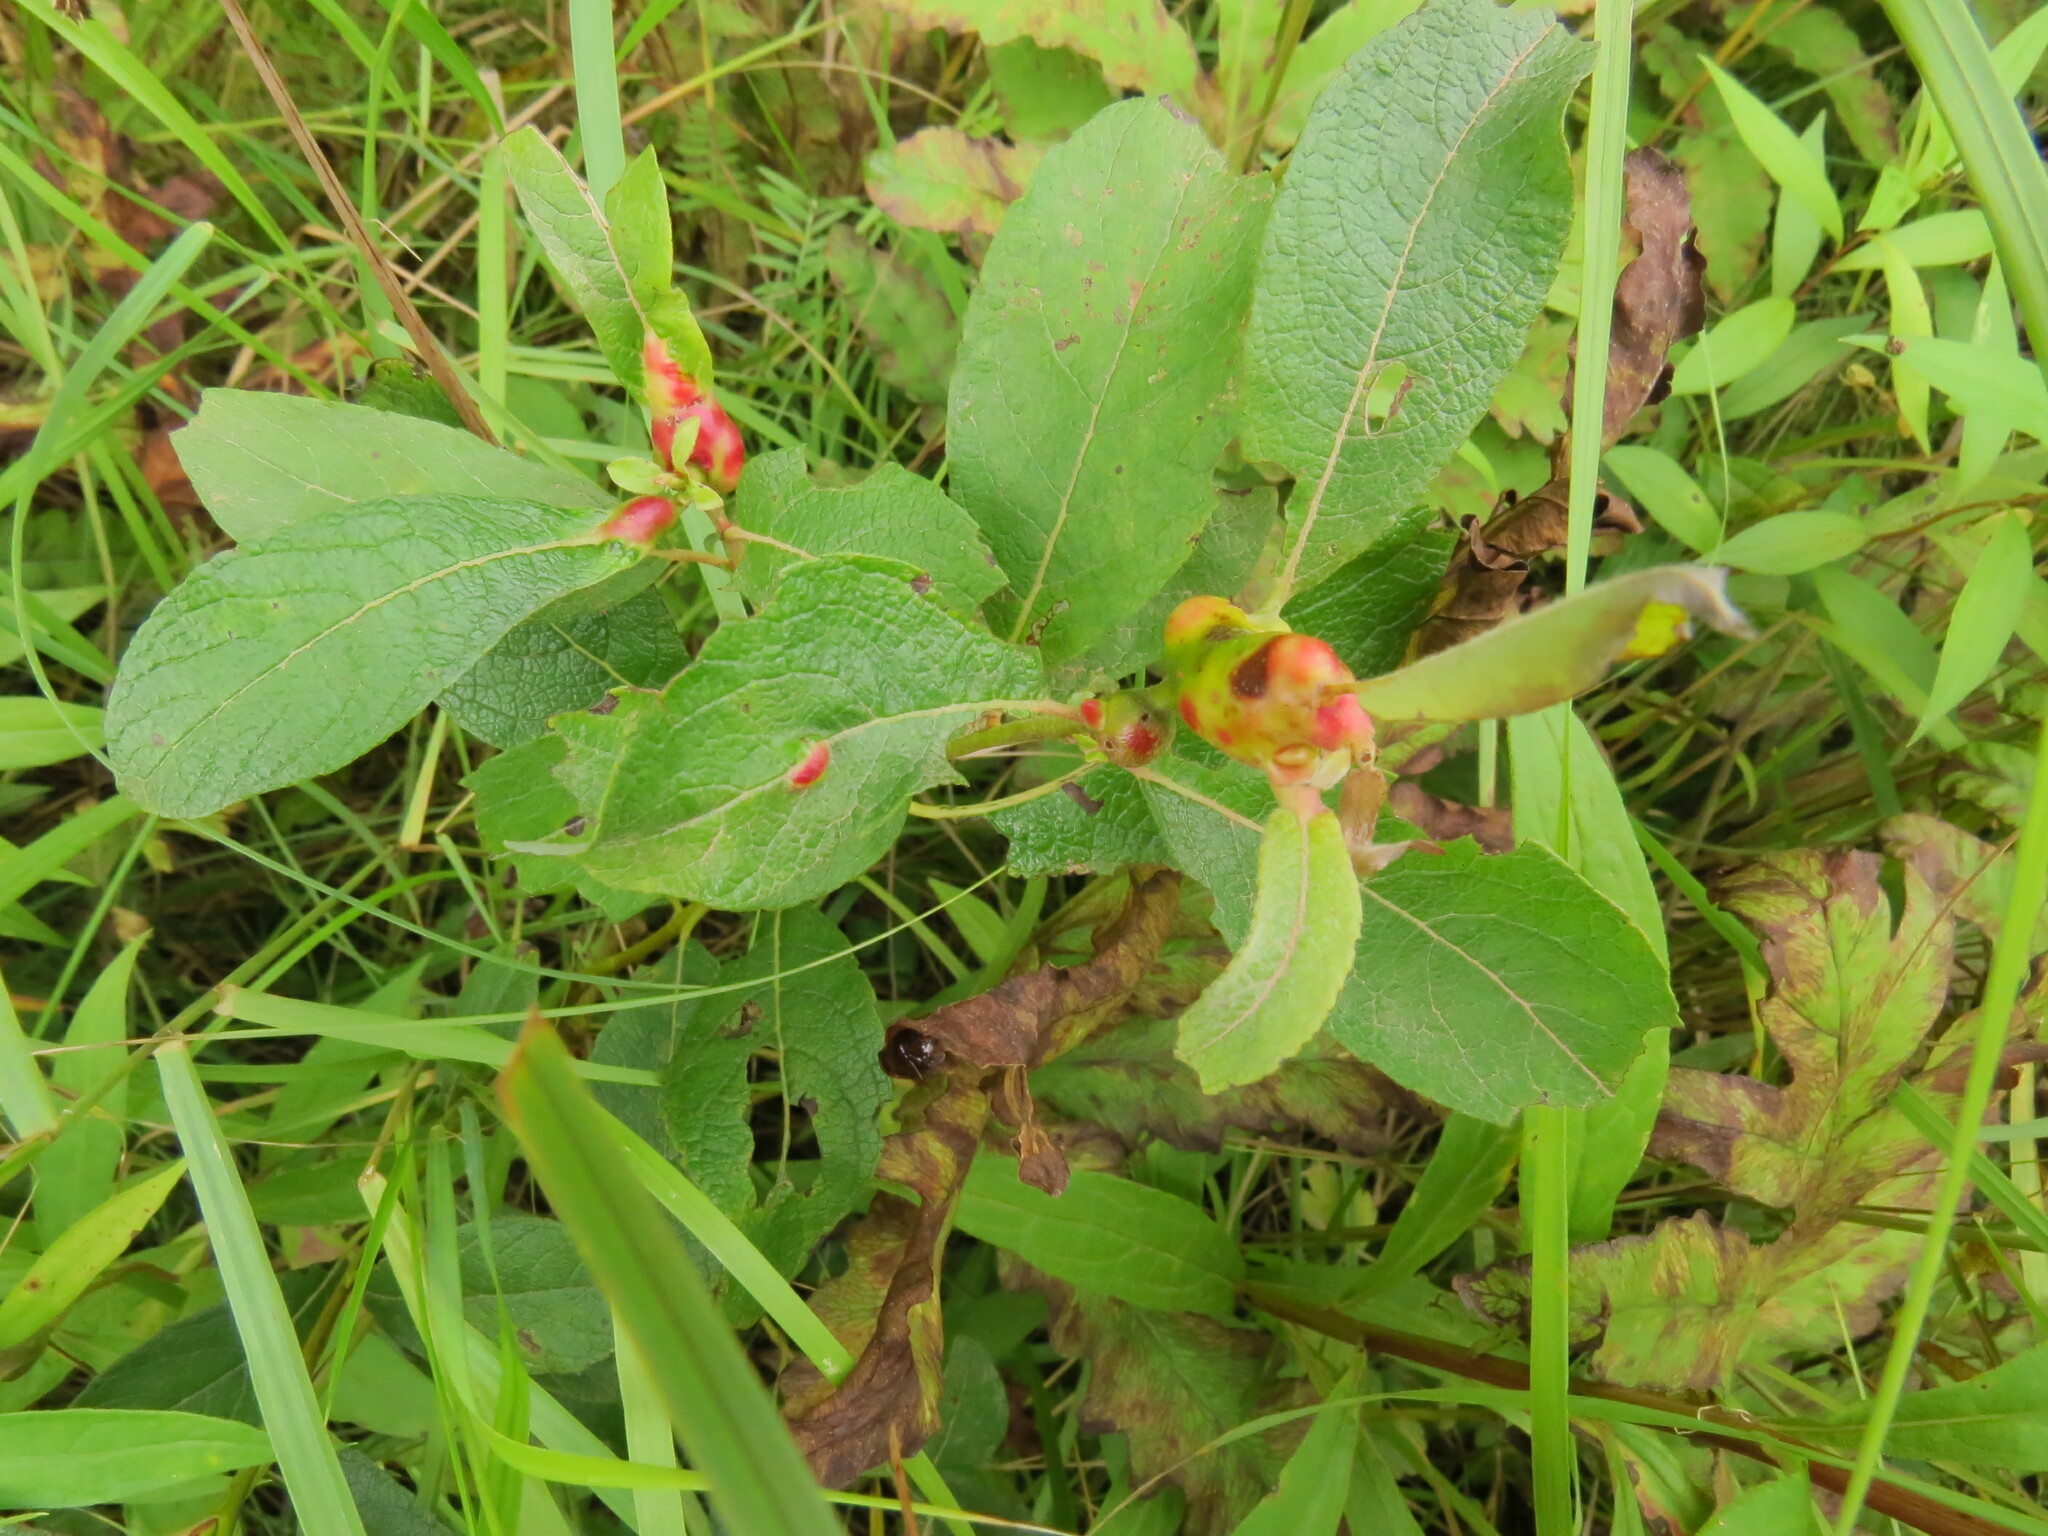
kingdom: Animalia
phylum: Arthropoda
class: Insecta
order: Diptera
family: Cecidomyiidae
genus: Rabdophaga
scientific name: Rabdophaga salicisbatatas
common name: Potato gall midge
